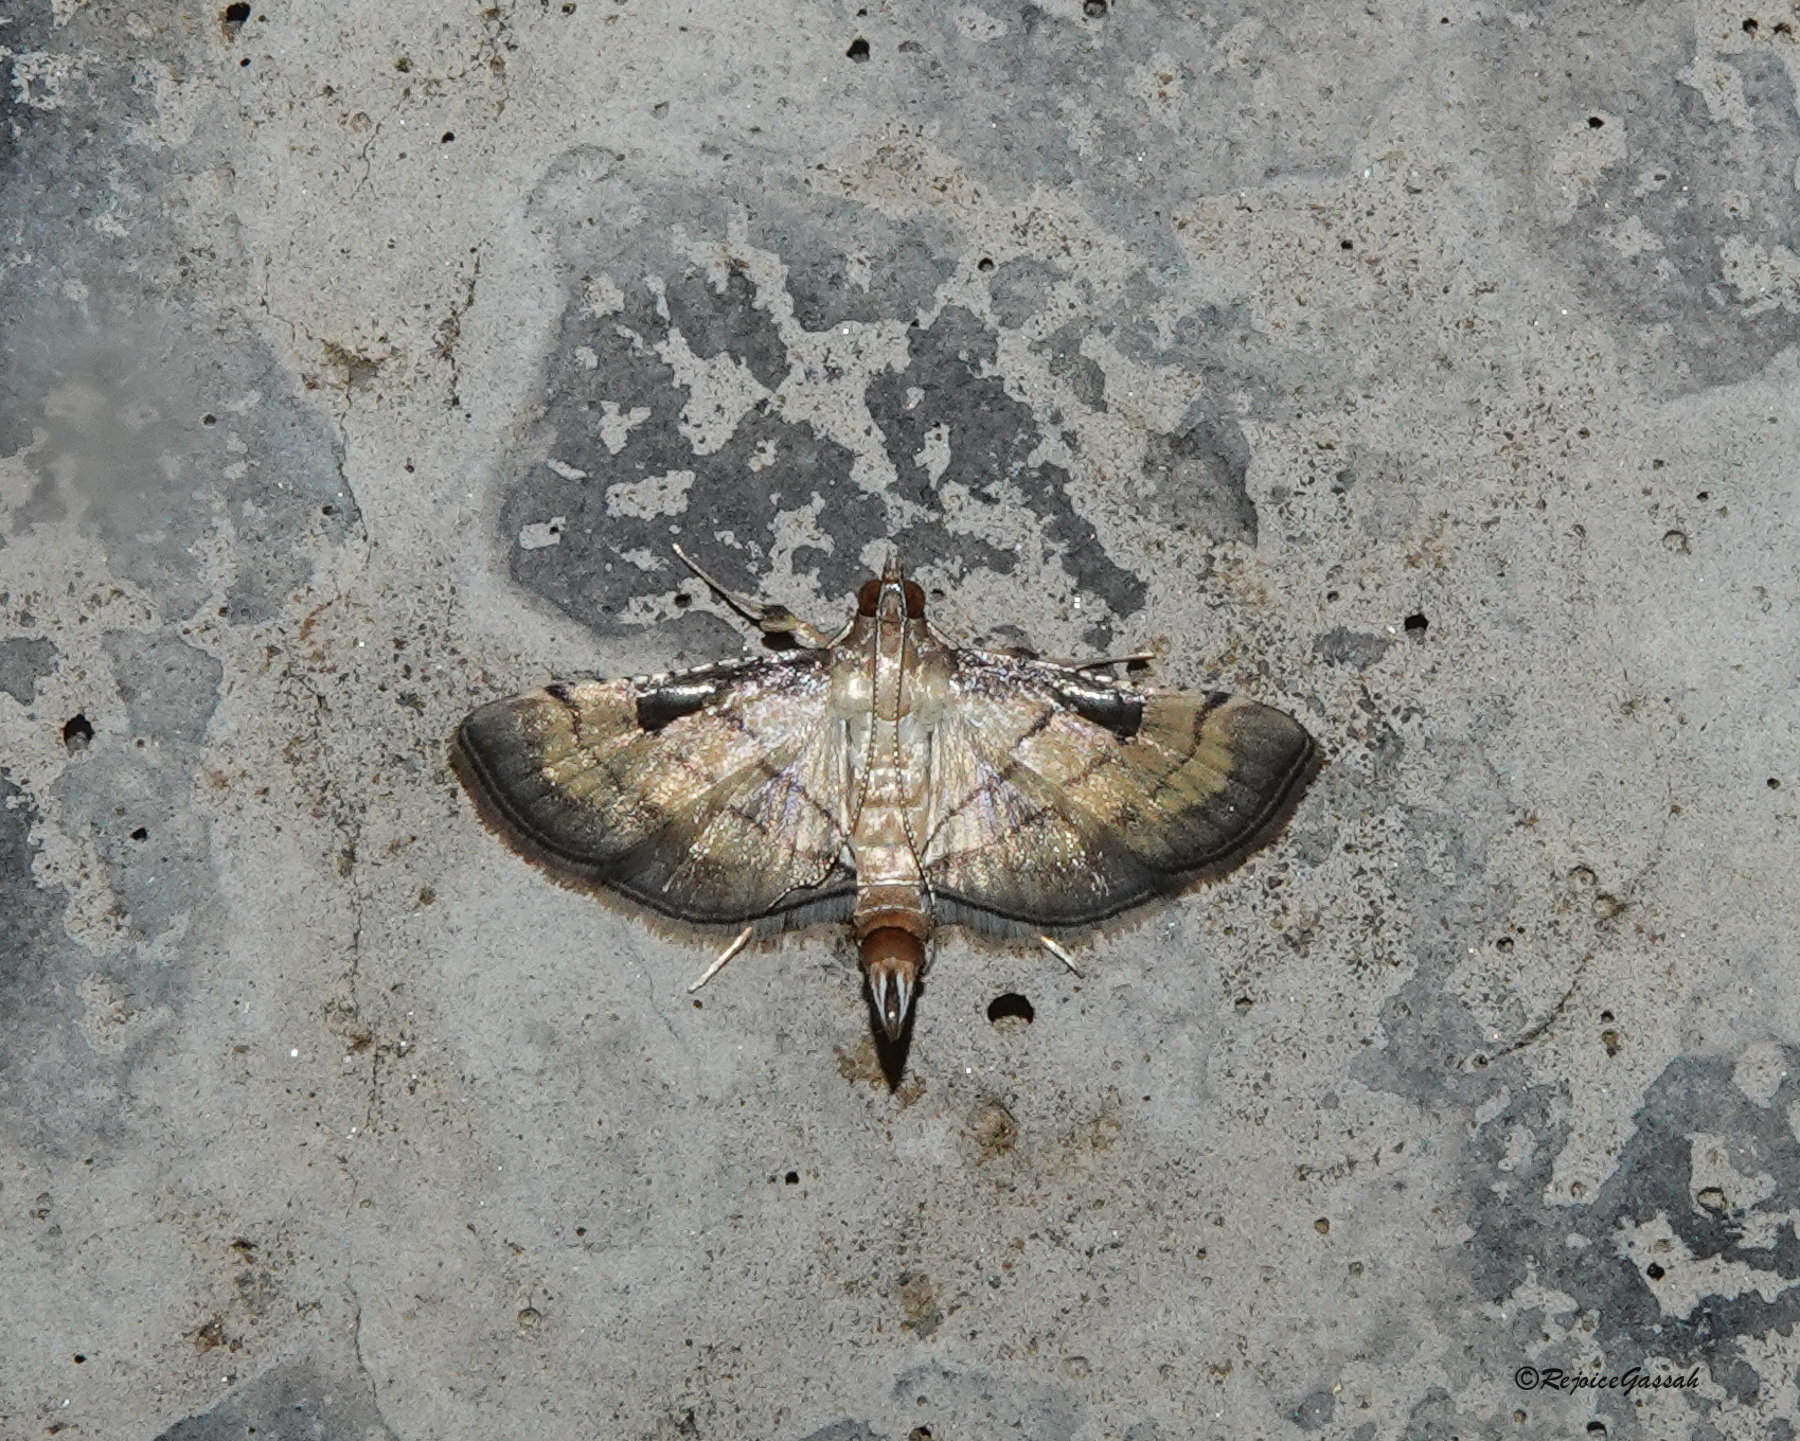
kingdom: Animalia
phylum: Arthropoda
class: Insecta
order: Lepidoptera
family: Crambidae
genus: Cnaphalocrocis
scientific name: Cnaphalocrocis poeyalis
